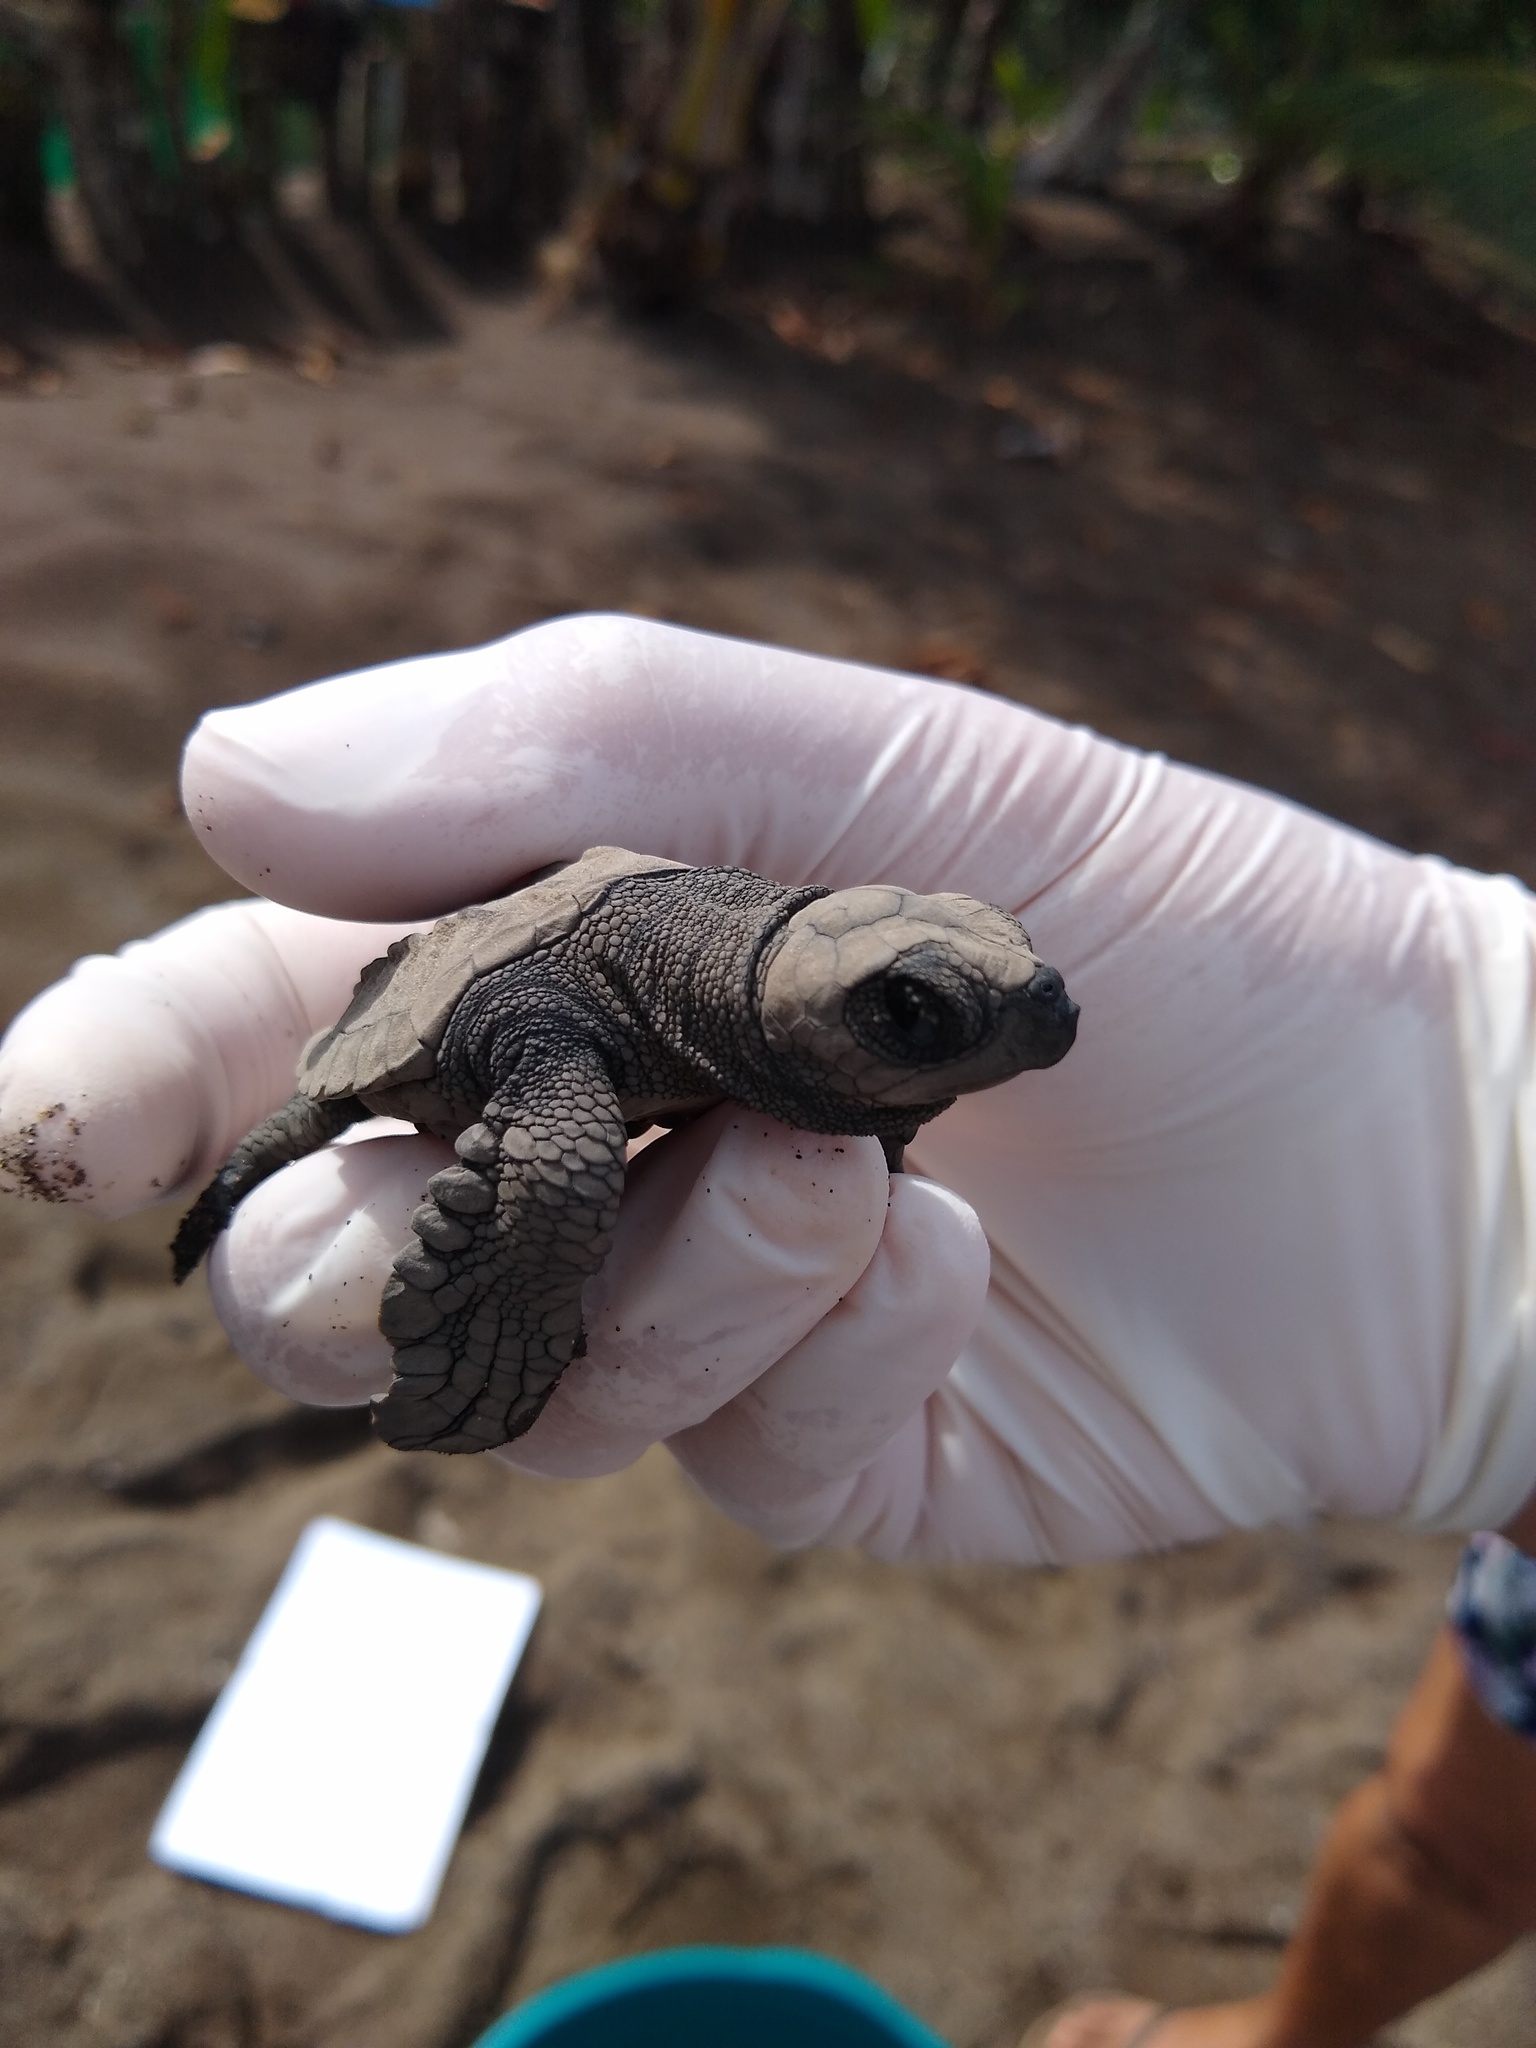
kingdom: Animalia
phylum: Chordata
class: Testudines
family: Cheloniidae
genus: Lepidochelys
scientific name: Lepidochelys olivacea
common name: Olive ridley
